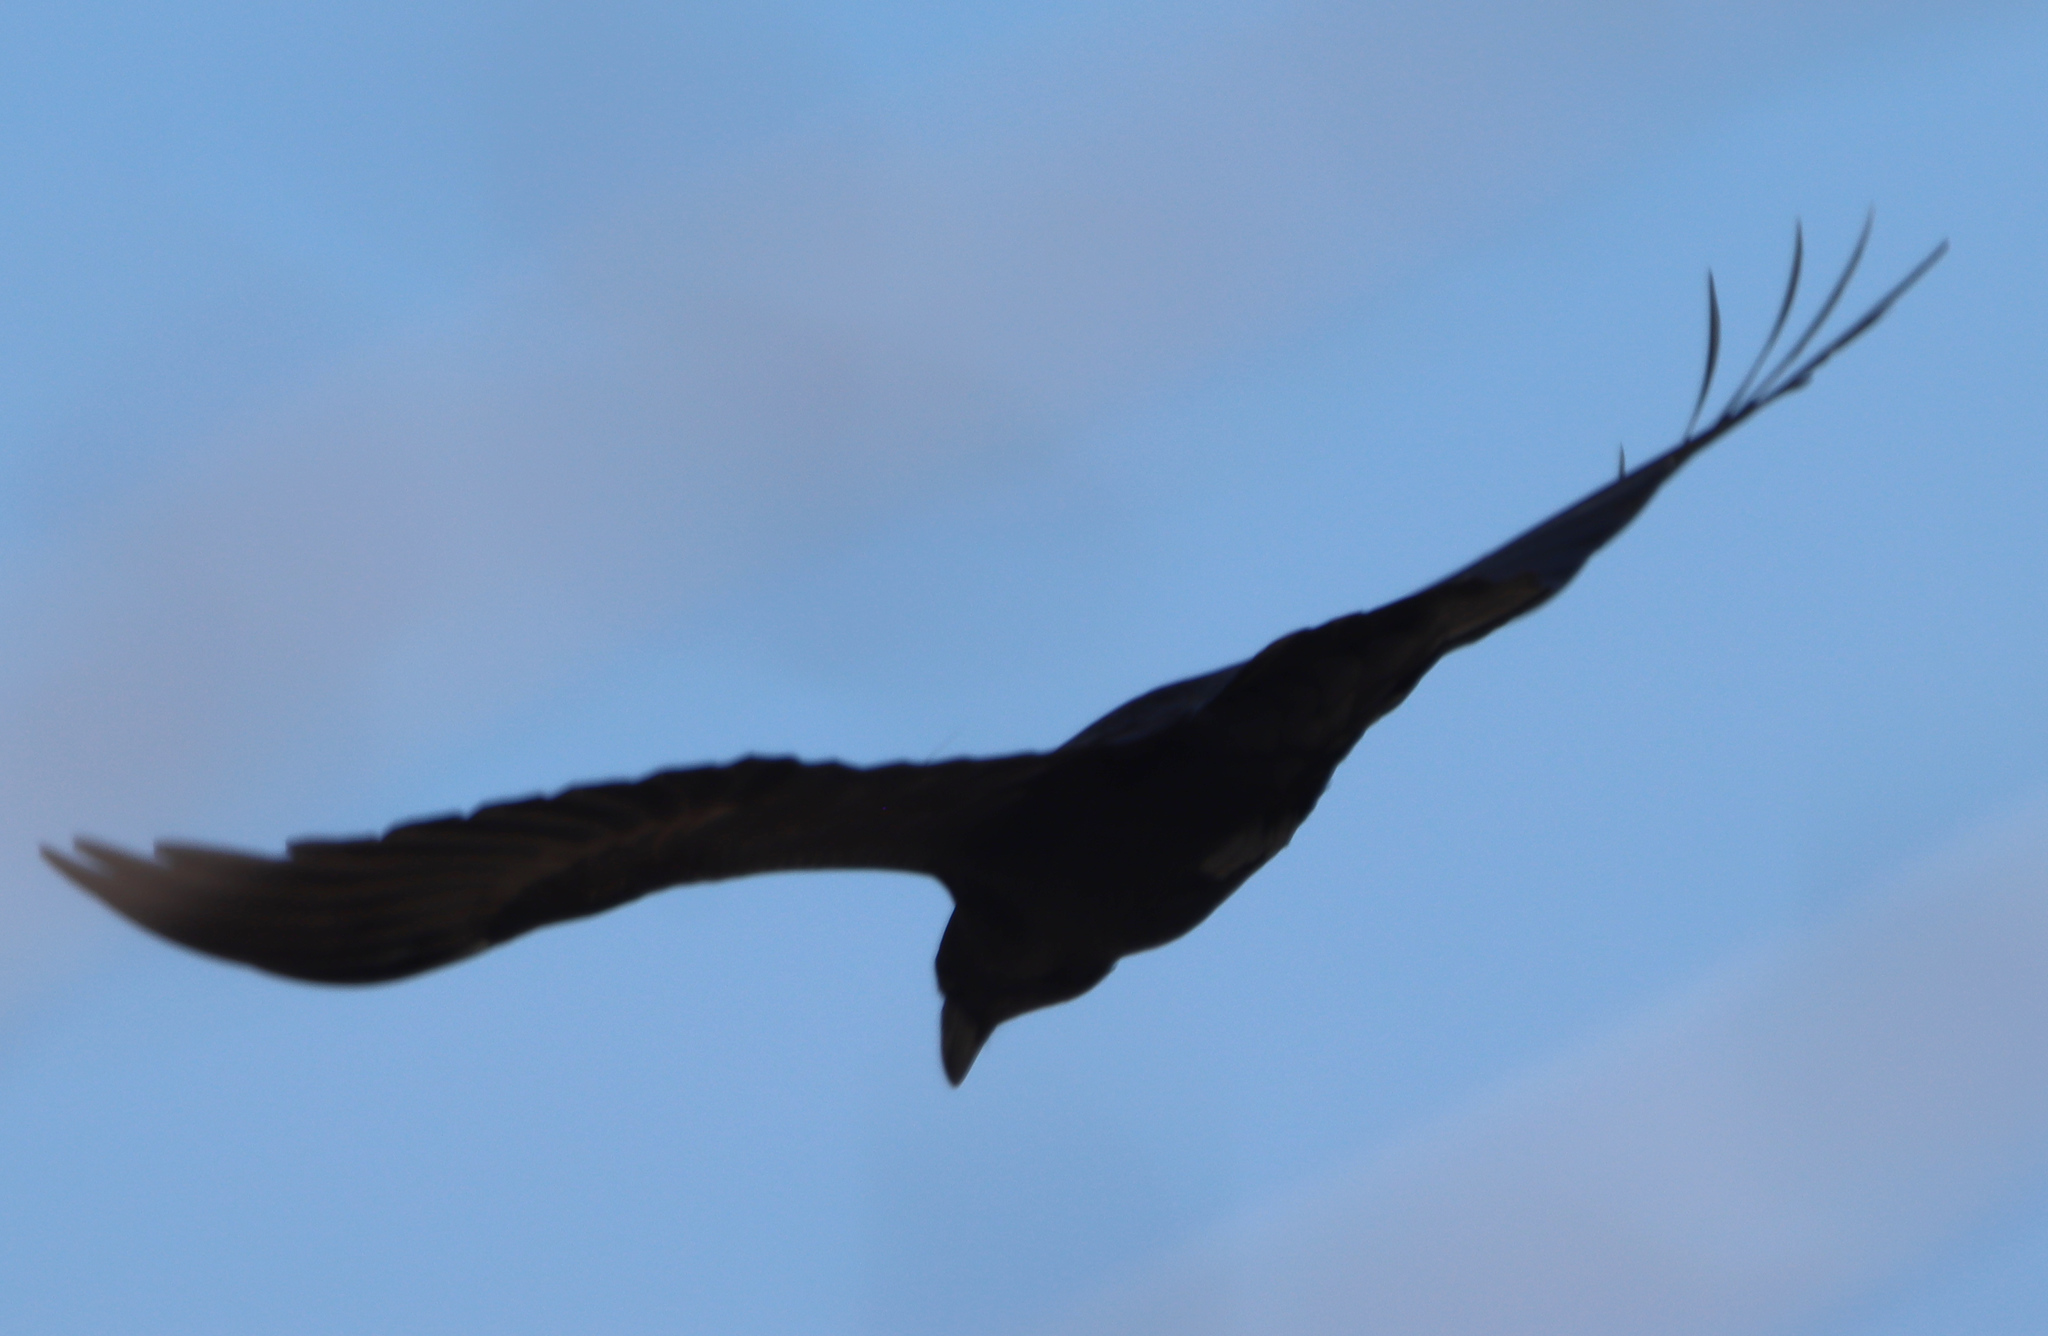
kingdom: Animalia
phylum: Chordata
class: Aves
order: Passeriformes
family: Corvidae
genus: Corvus
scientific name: Corvus corax
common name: Common raven
